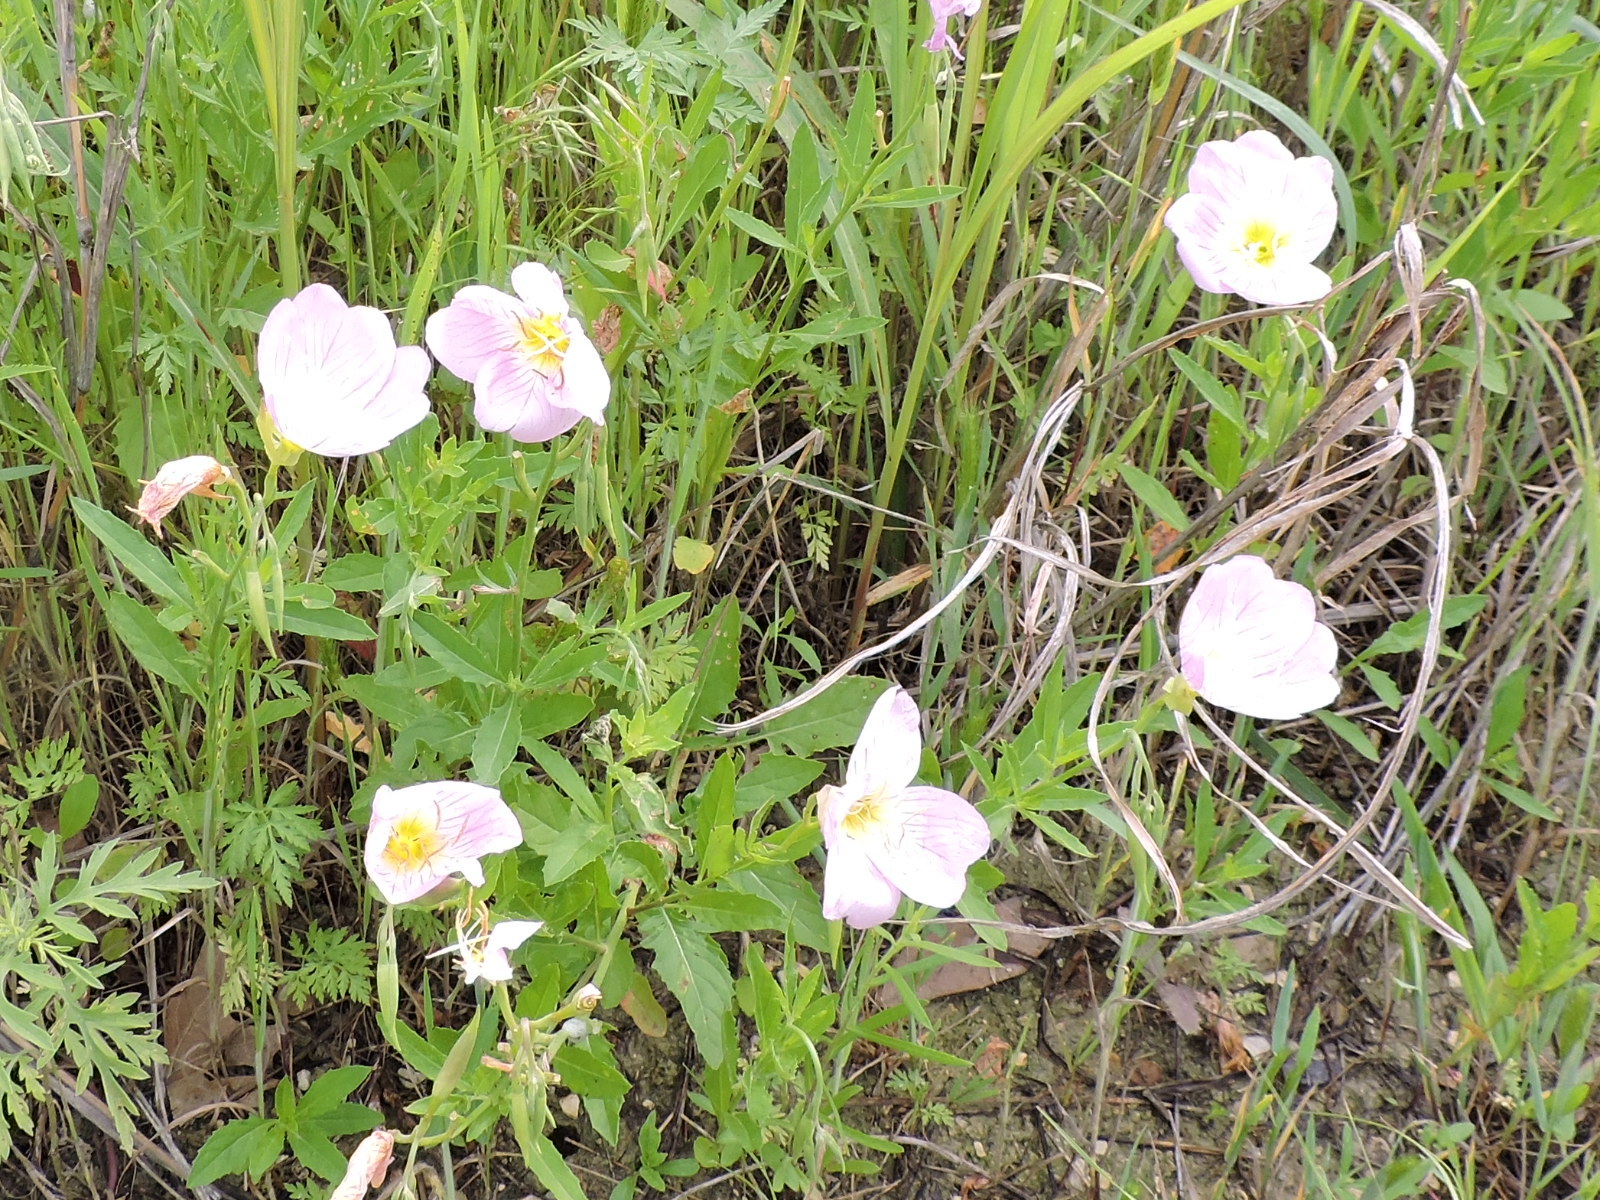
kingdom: Plantae
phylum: Tracheophyta
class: Magnoliopsida
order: Myrtales
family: Onagraceae
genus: Oenothera
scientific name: Oenothera speciosa
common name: White evening-primrose
